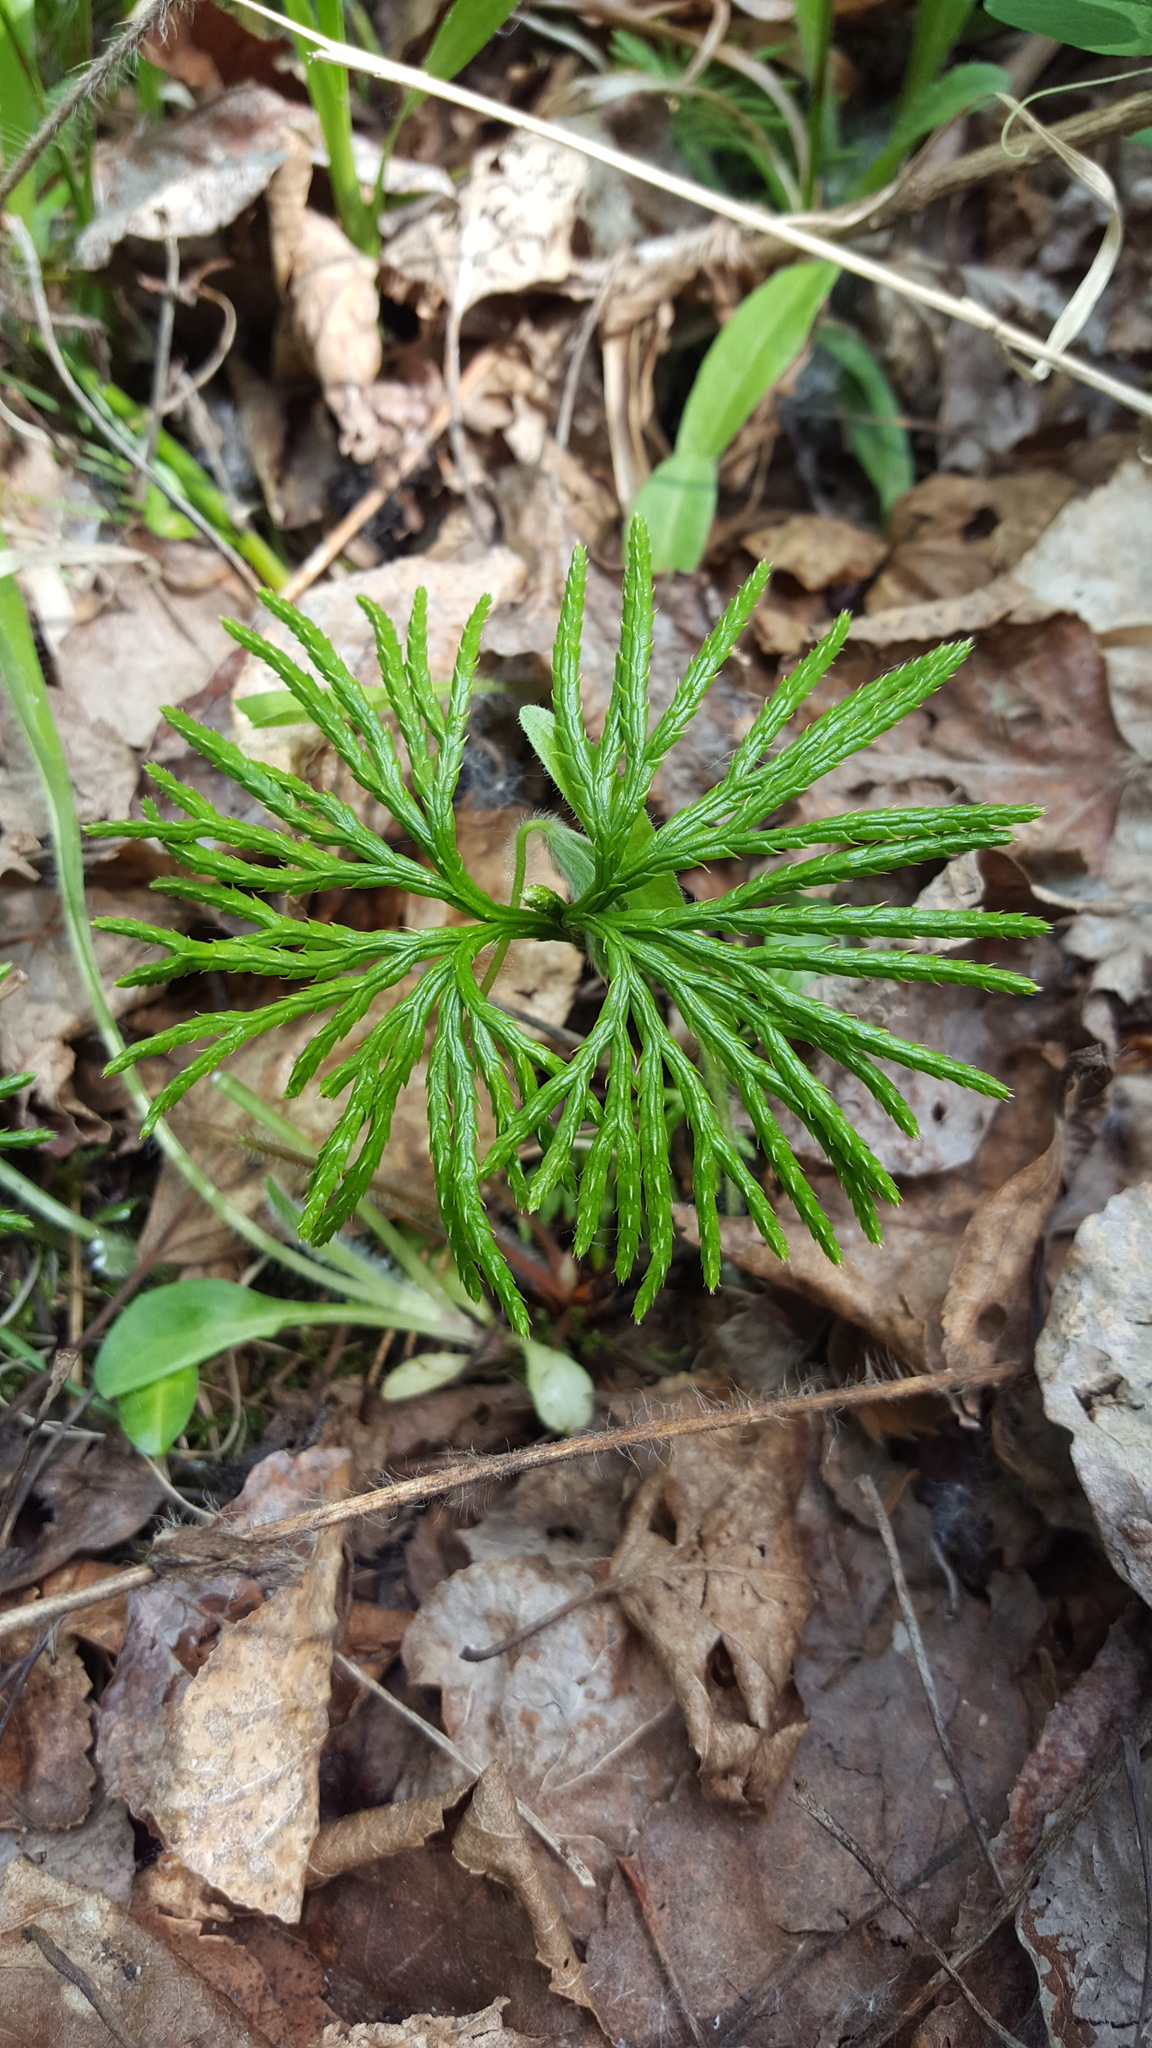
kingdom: Plantae
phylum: Tracheophyta
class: Lycopodiopsida
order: Lycopodiales
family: Lycopodiaceae
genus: Diphasiastrum
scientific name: Diphasiastrum digitatum
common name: Southern running-pine
